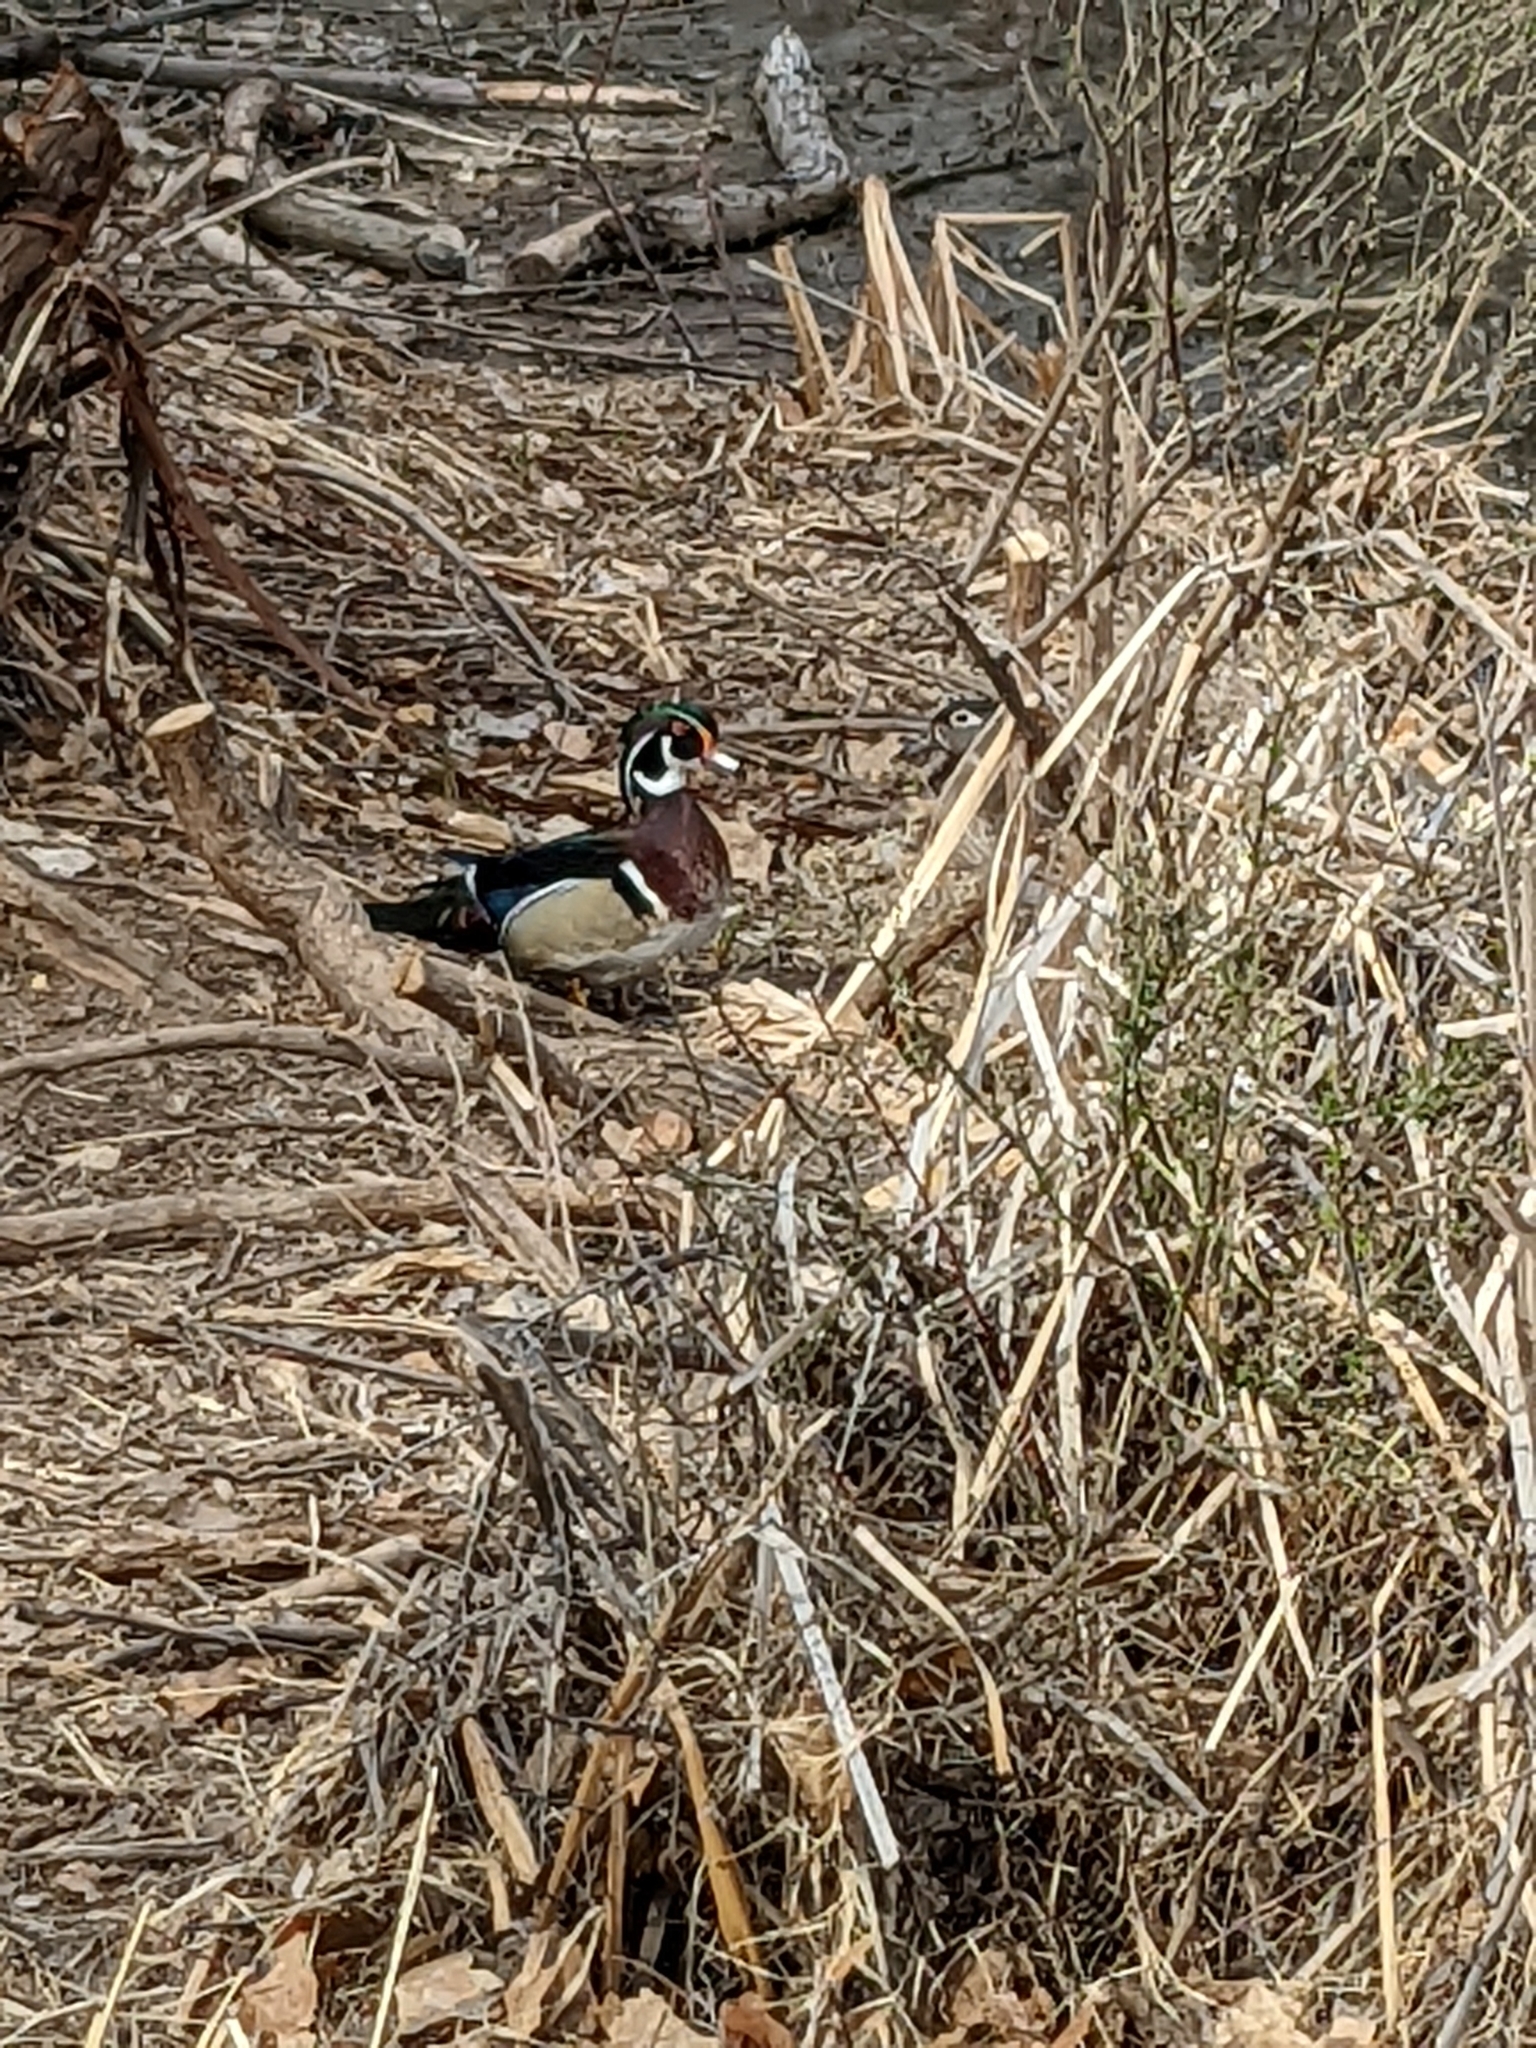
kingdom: Animalia
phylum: Chordata
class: Aves
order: Anseriformes
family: Anatidae
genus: Aix
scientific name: Aix sponsa
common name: Wood duck
